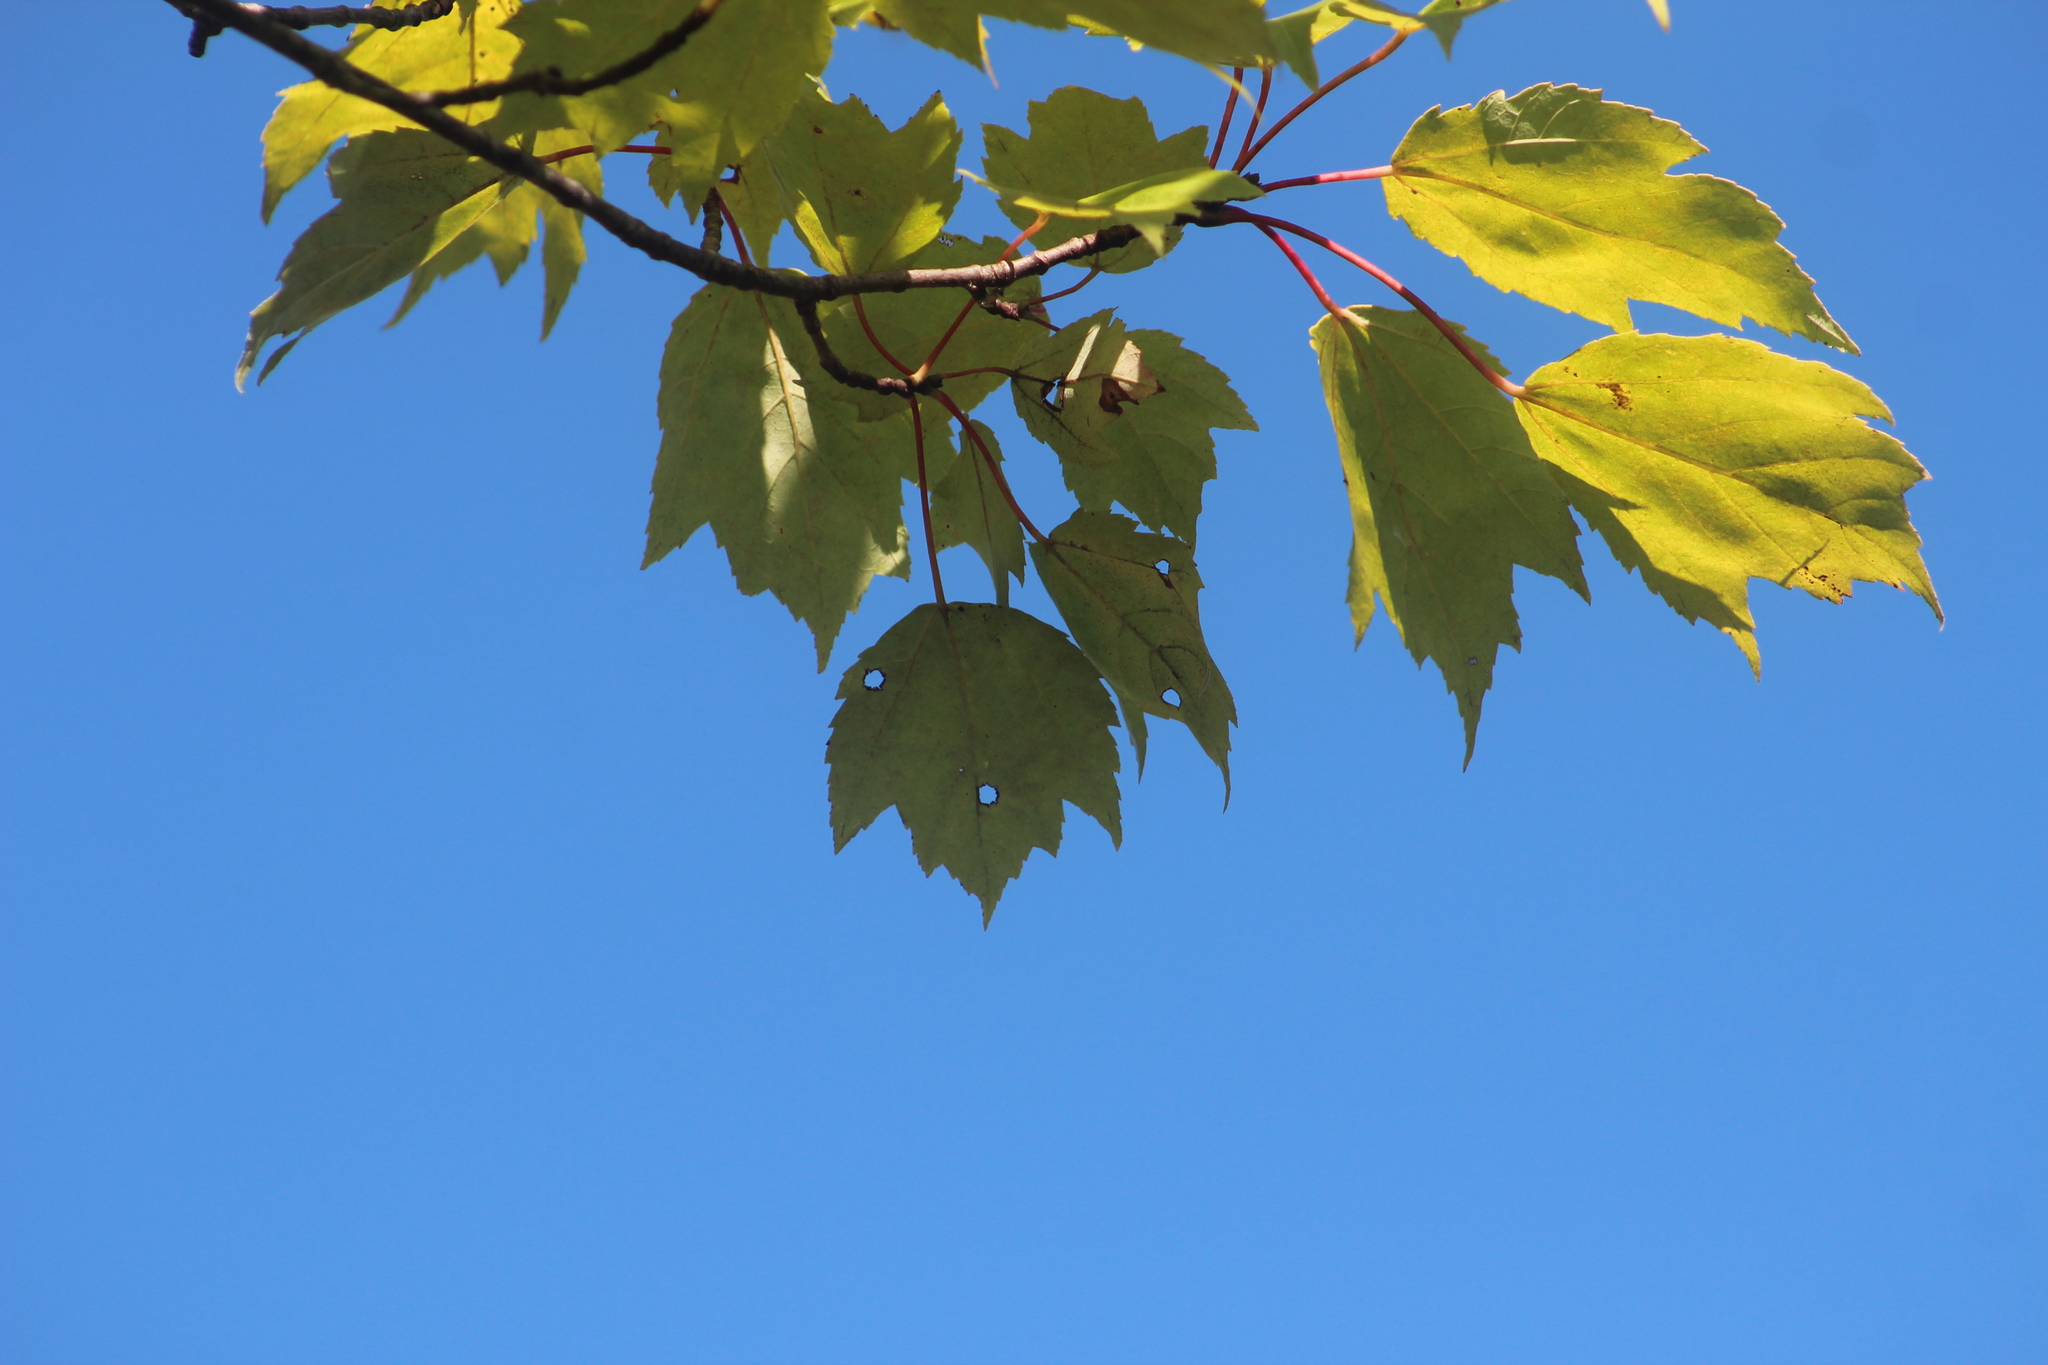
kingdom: Plantae
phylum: Tracheophyta
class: Magnoliopsida
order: Sapindales
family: Sapindaceae
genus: Acer
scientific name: Acer rubrum
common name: Red maple
